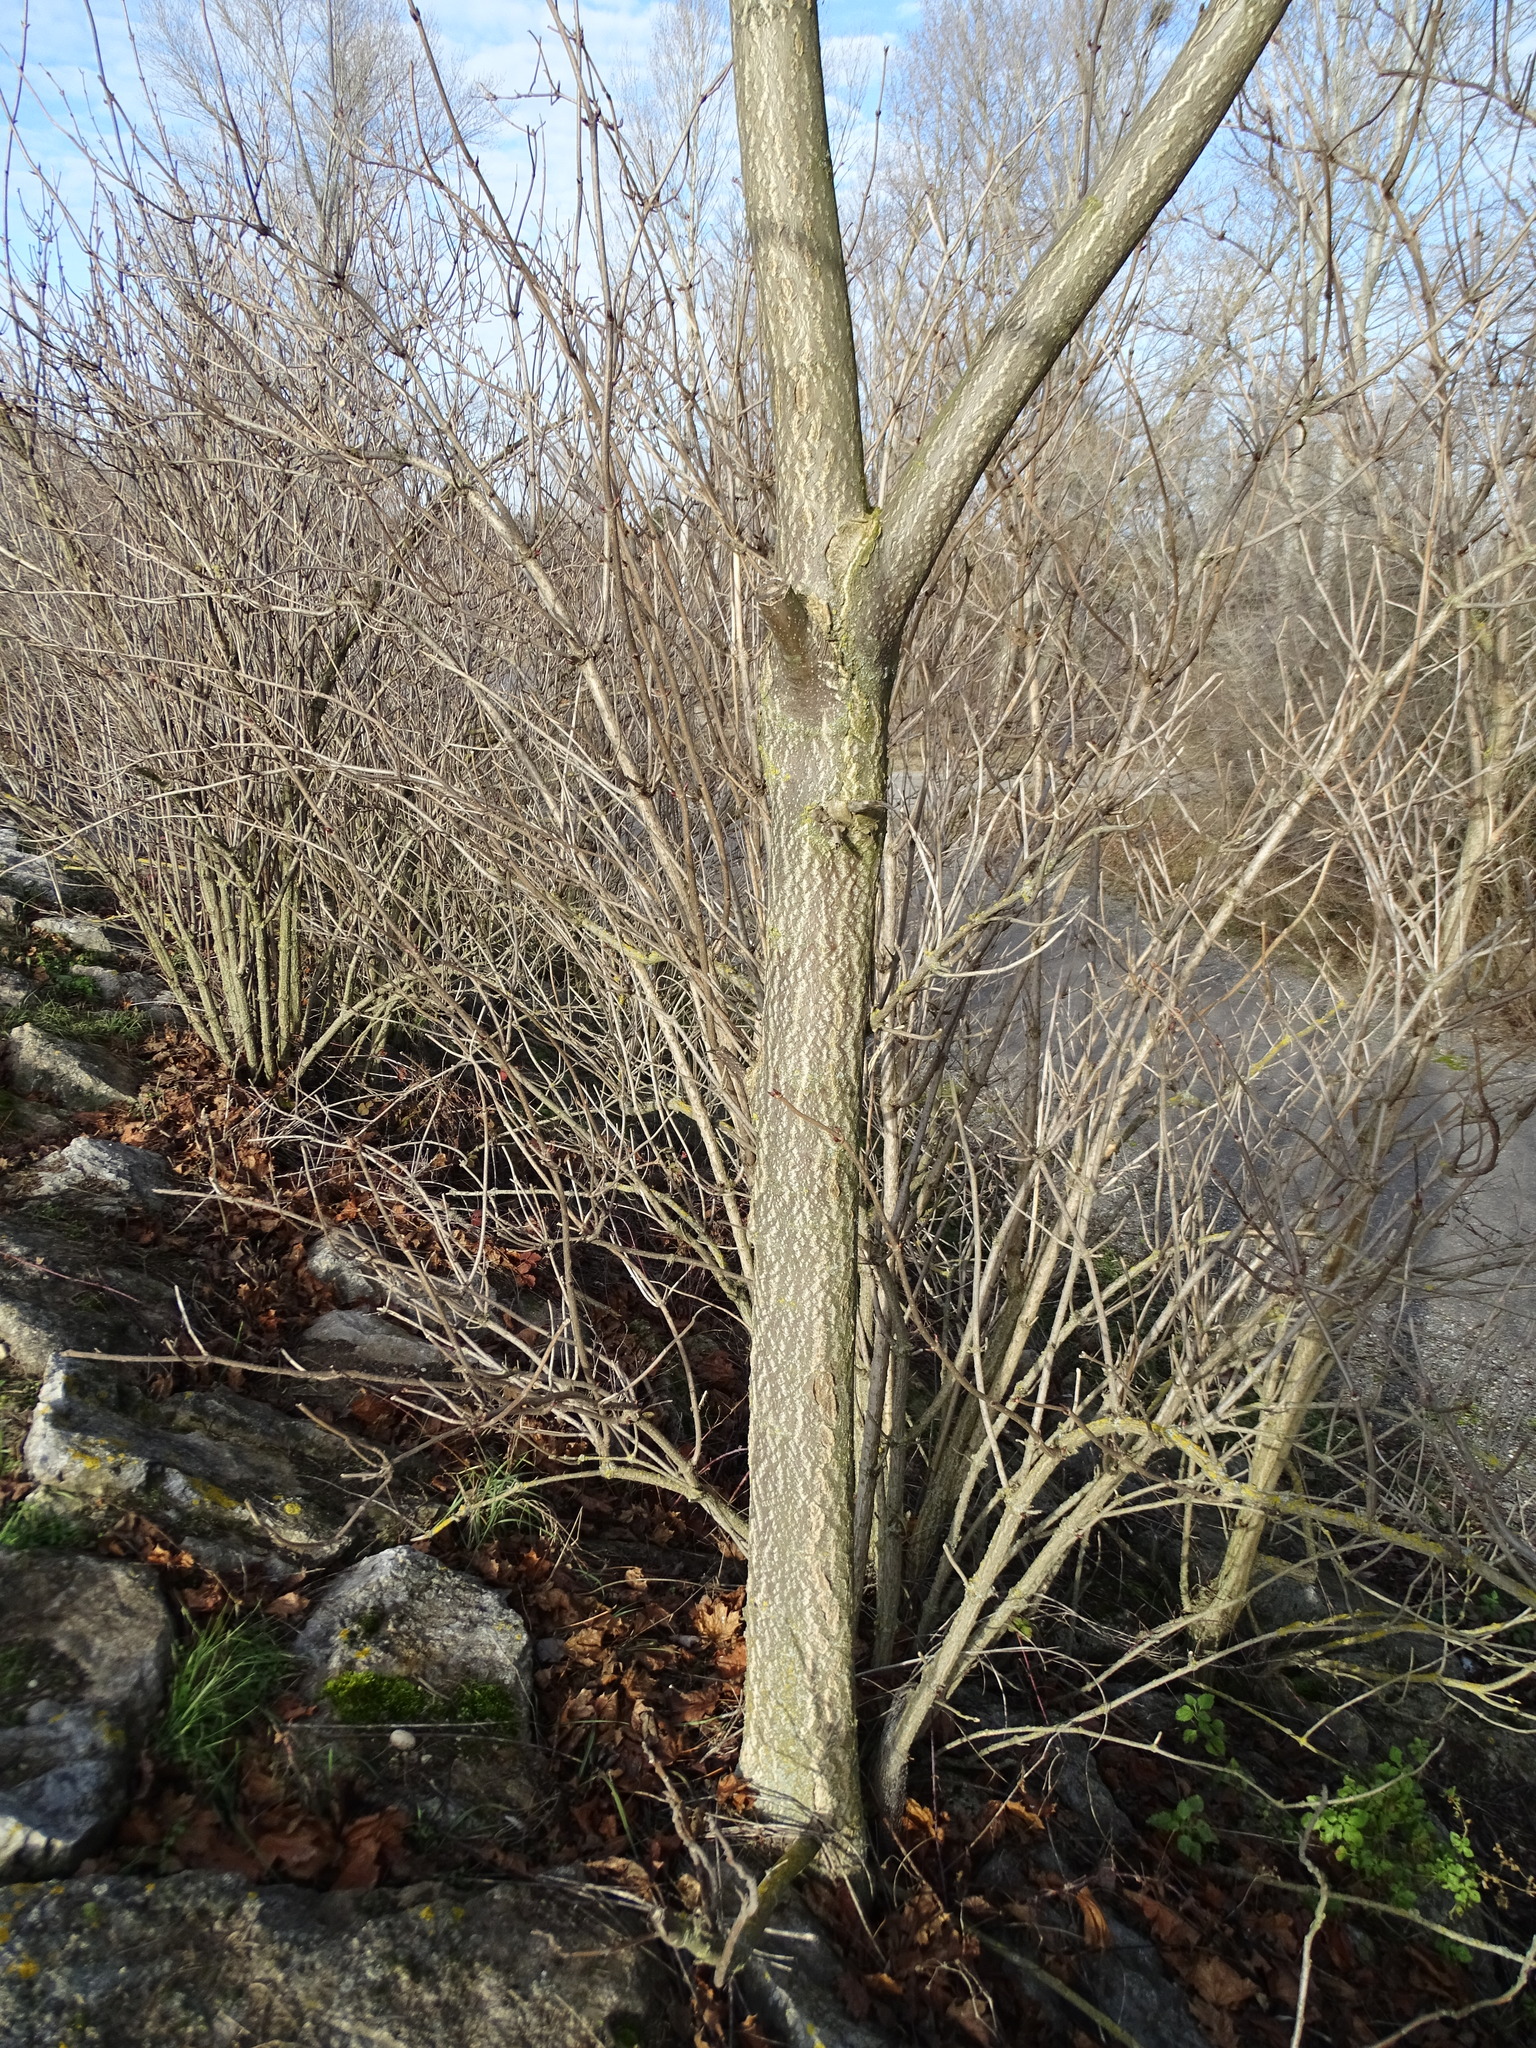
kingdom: Plantae
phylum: Tracheophyta
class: Magnoliopsida
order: Sapindales
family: Simaroubaceae
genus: Ailanthus
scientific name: Ailanthus altissima
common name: Tree-of-heaven
